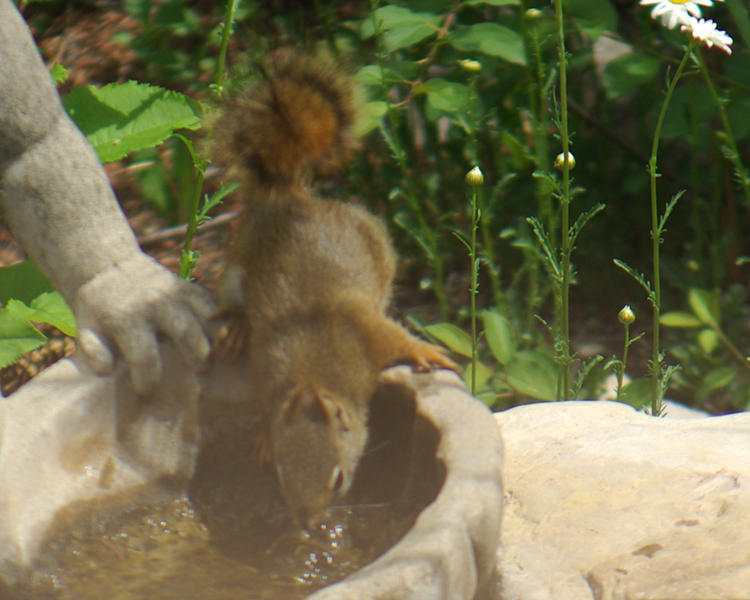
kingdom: Animalia
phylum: Chordata
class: Mammalia
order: Rodentia
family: Sciuridae
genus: Tamiasciurus
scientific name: Tamiasciurus hudsonicus
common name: Red squirrel
